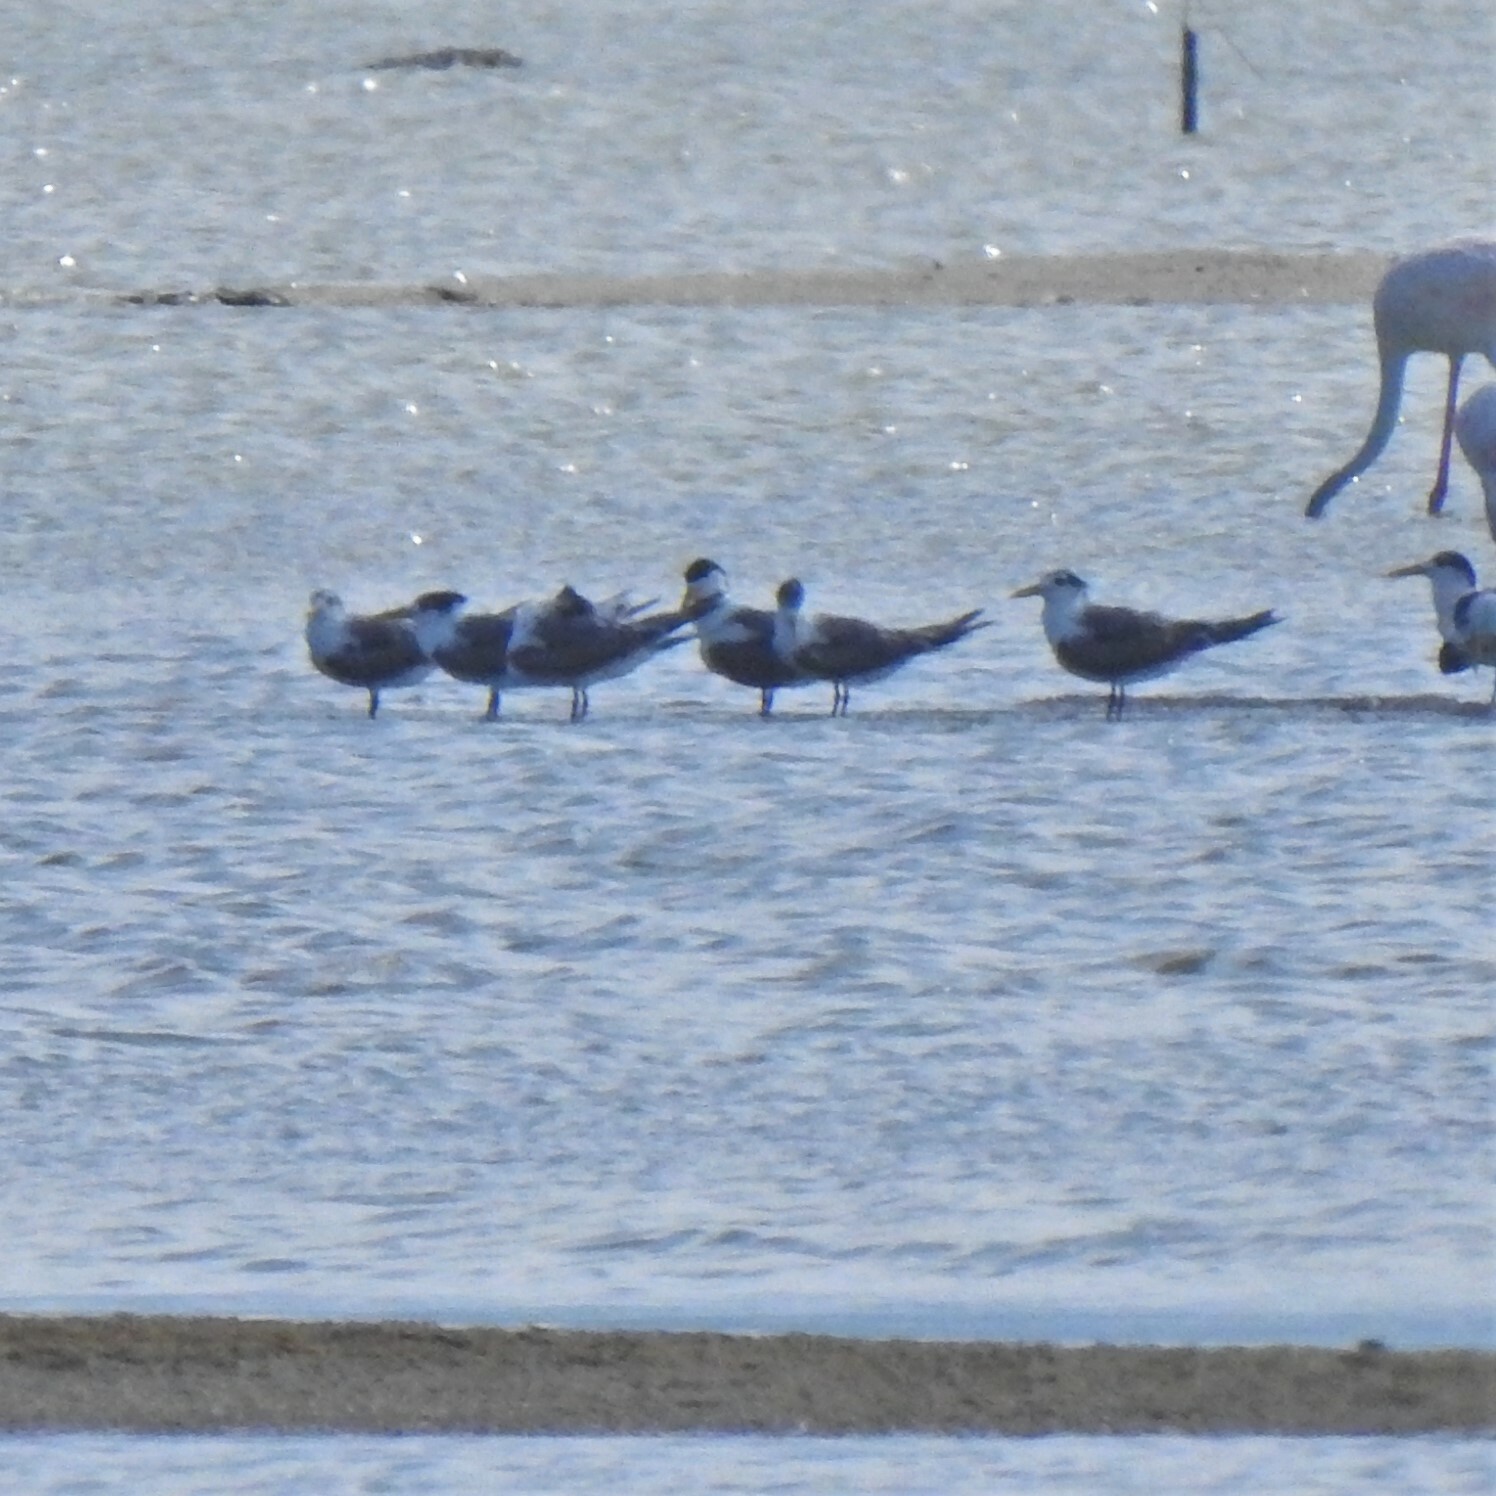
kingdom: Animalia
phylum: Chordata
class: Aves
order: Charadriiformes
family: Laridae
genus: Thalasseus
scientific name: Thalasseus bergii
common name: Greater crested tern
